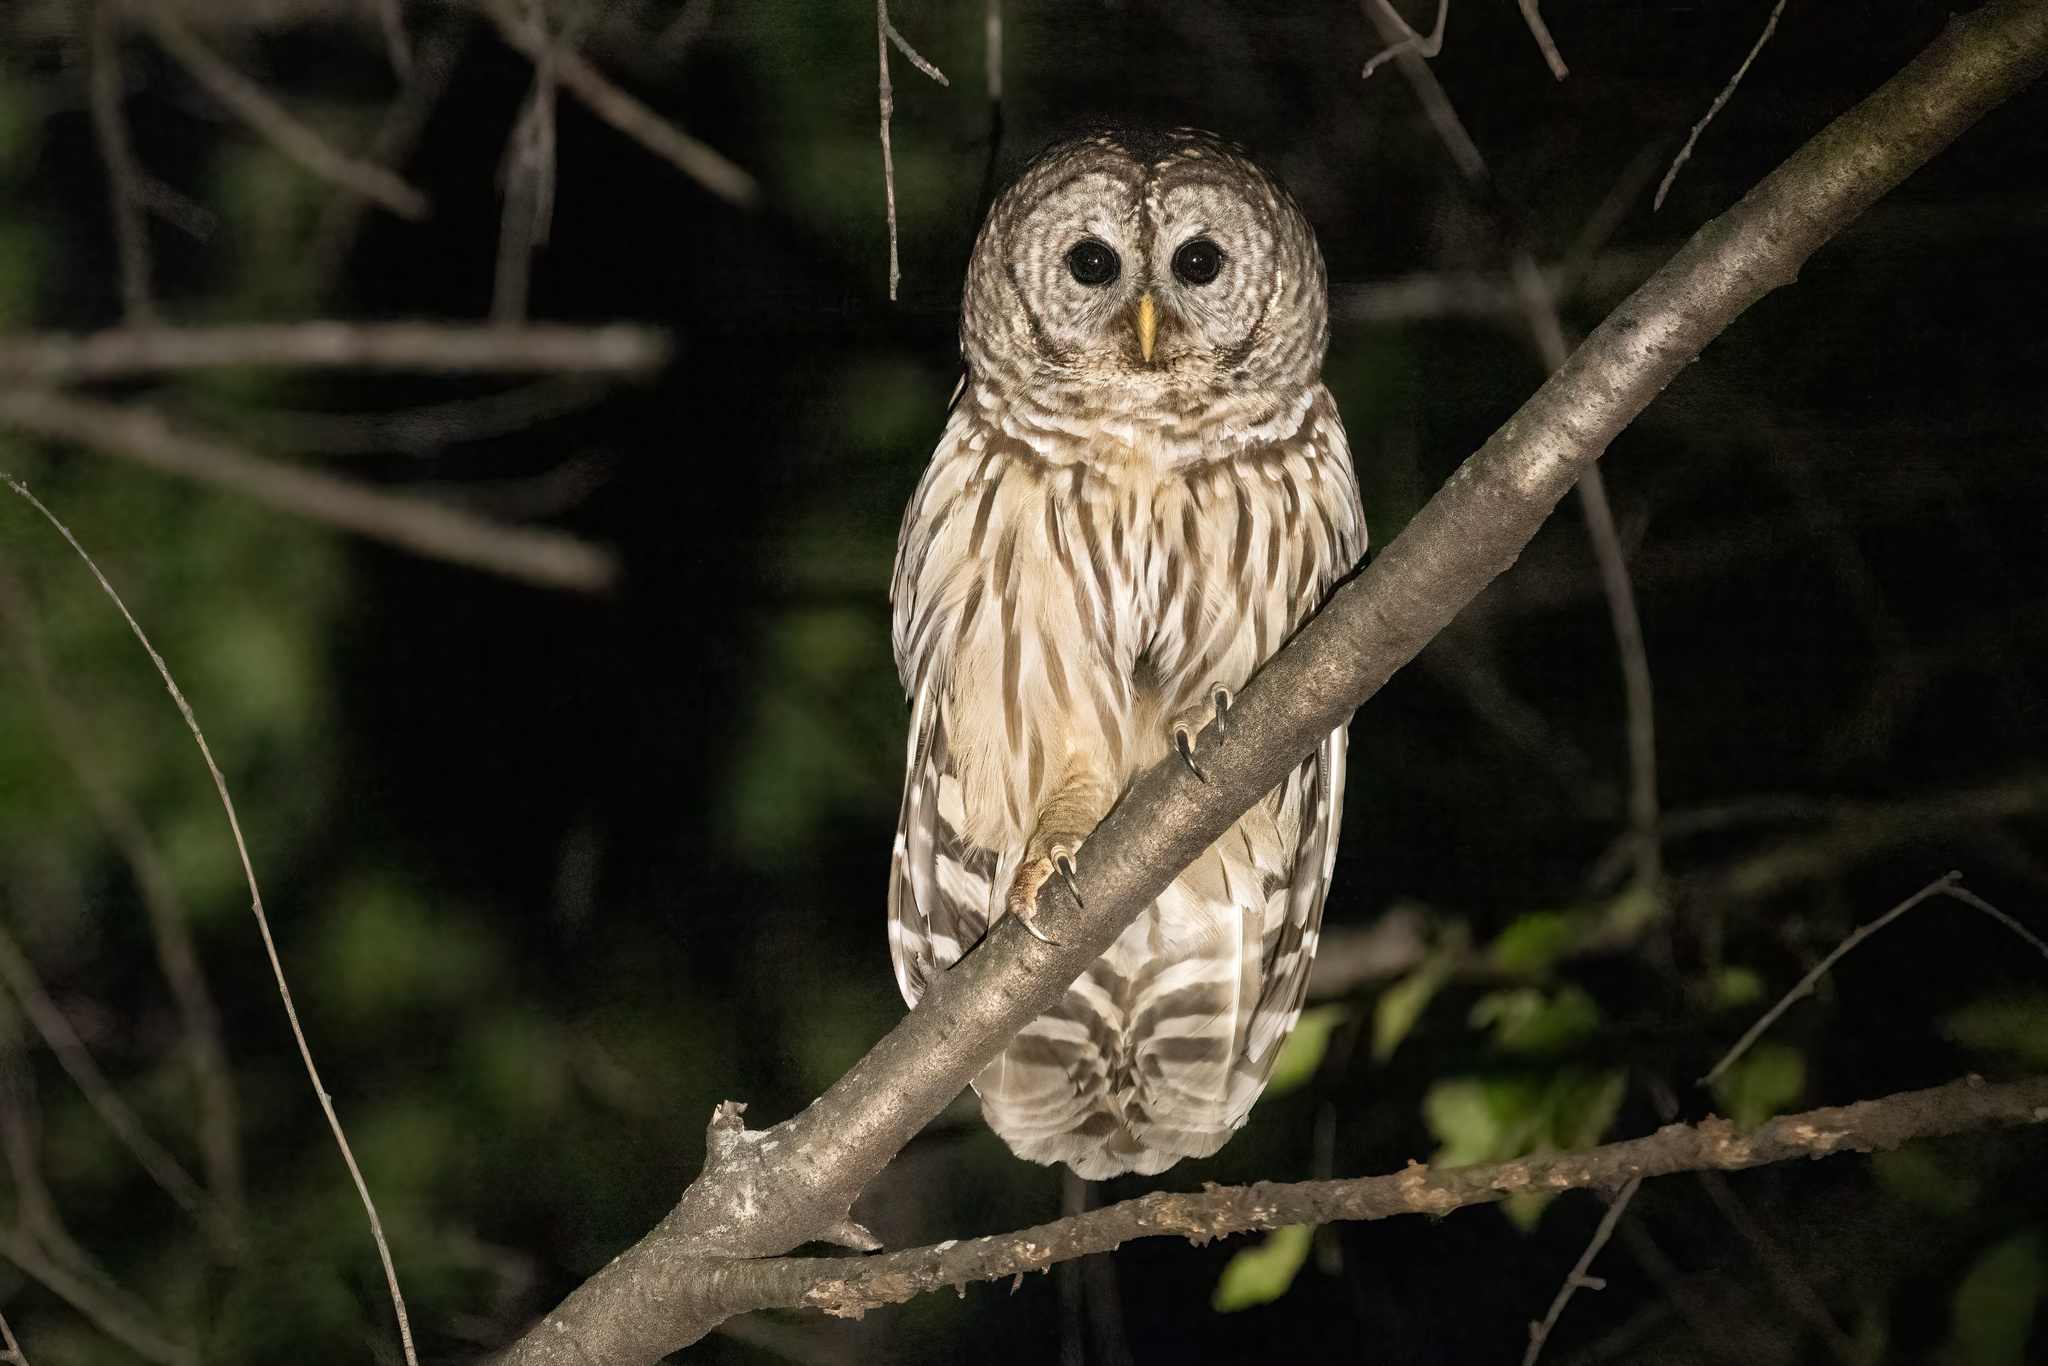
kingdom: Animalia
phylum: Chordata
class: Aves
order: Strigiformes
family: Strigidae
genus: Strix
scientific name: Strix varia
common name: Barred owl
